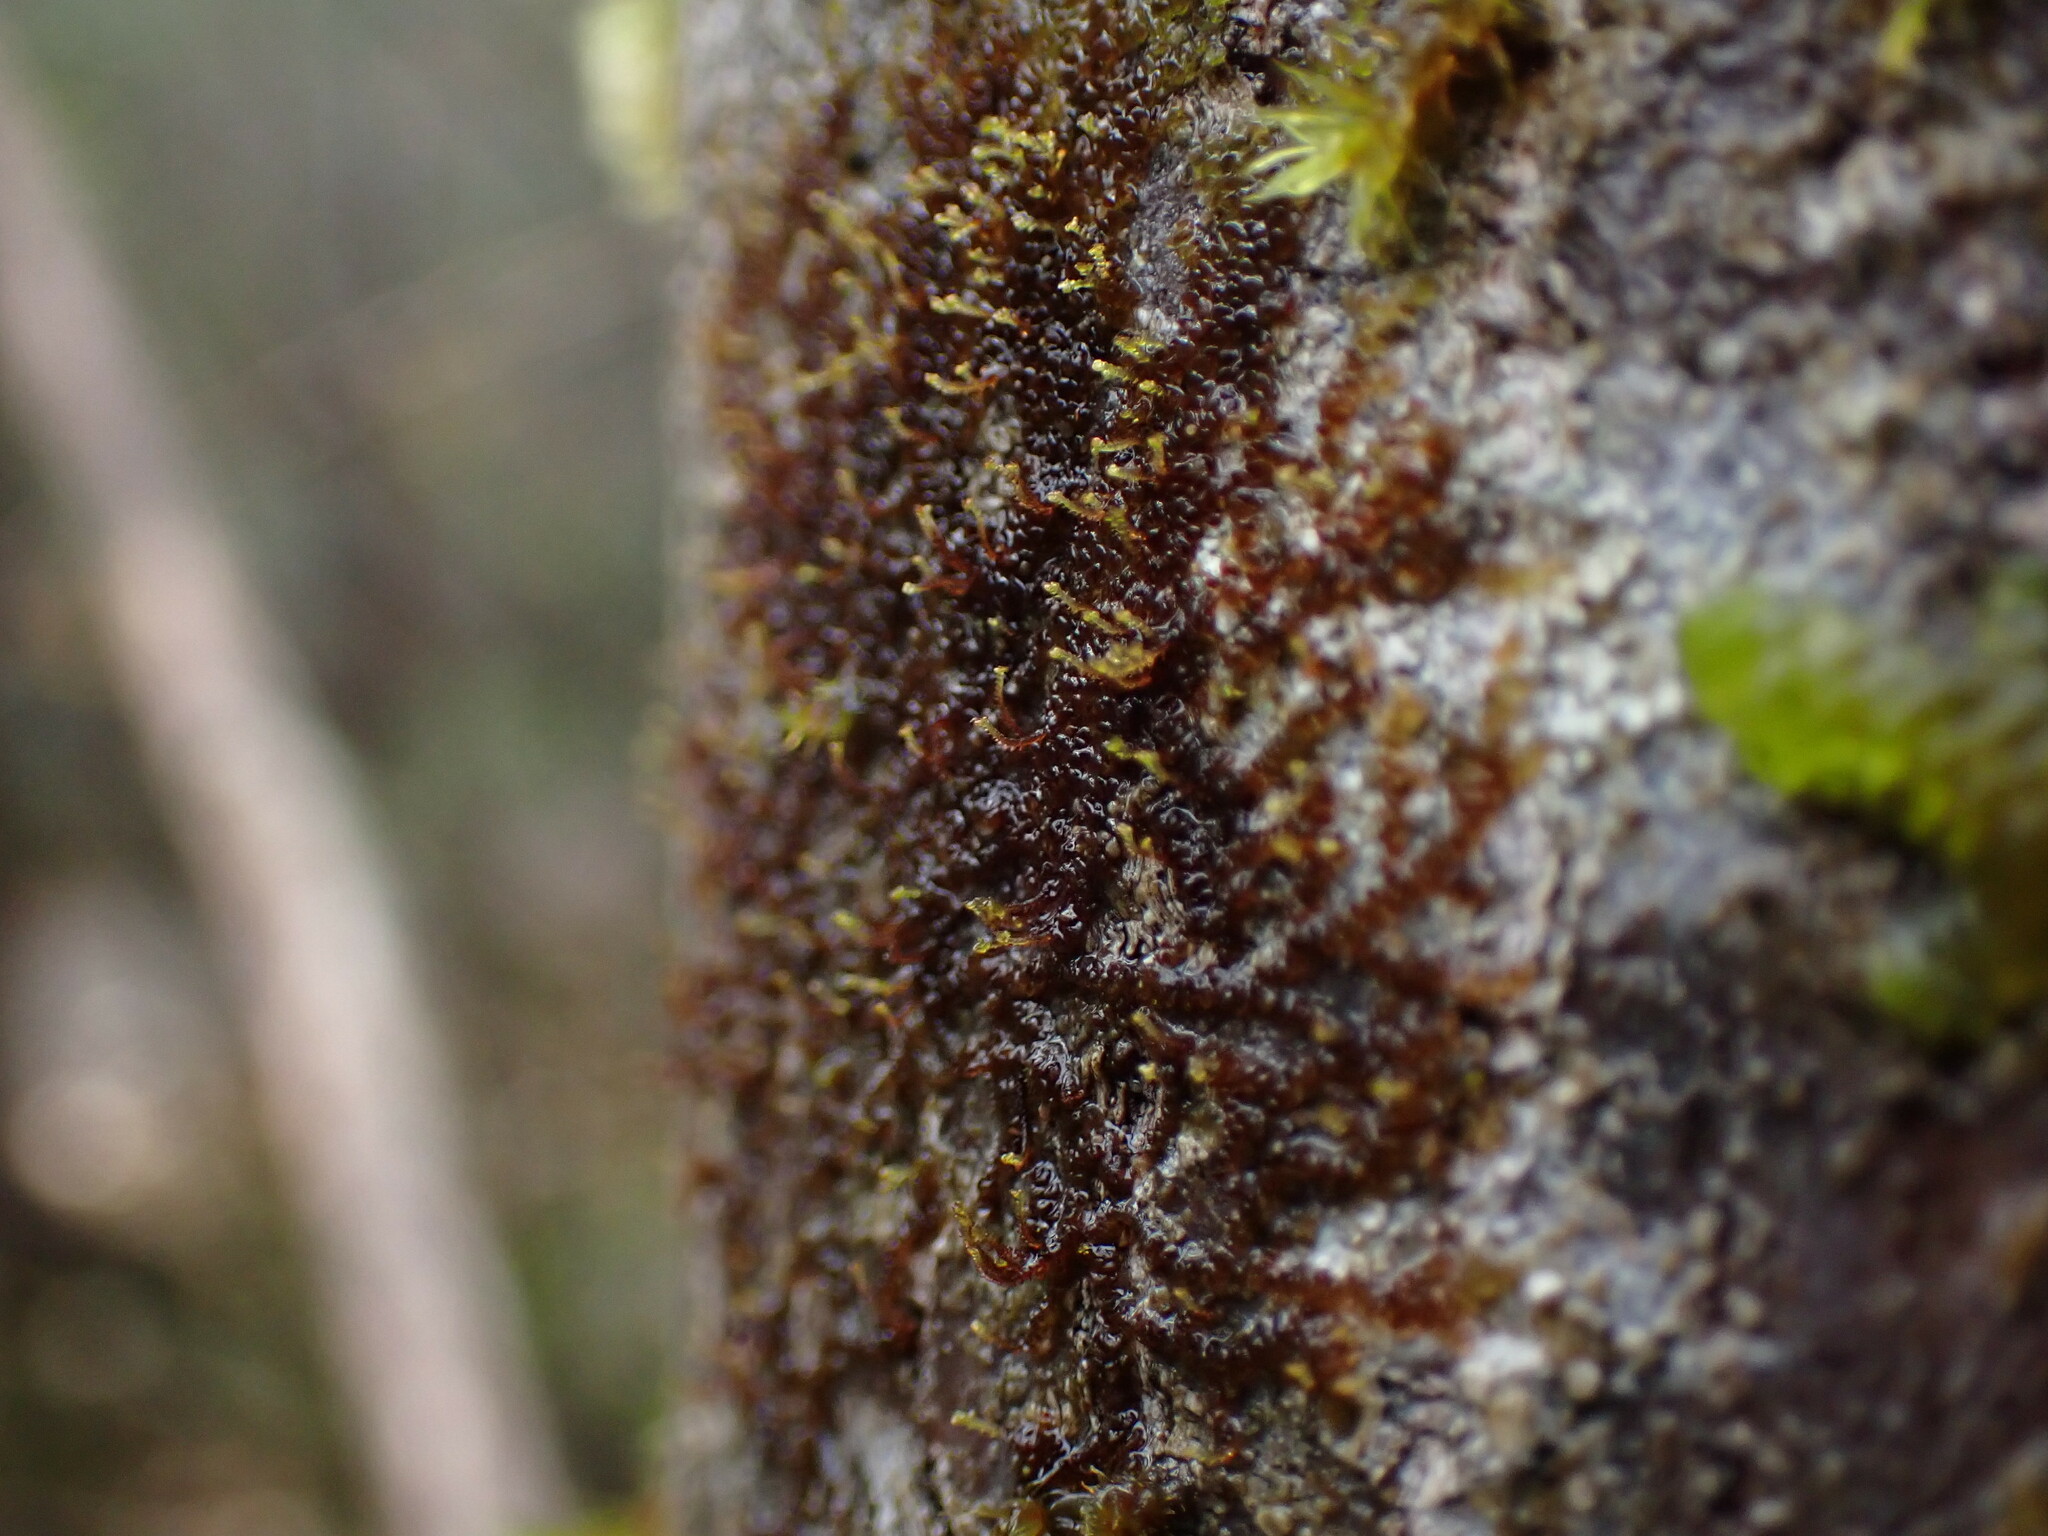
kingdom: Plantae
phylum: Marchantiophyta
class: Jungermanniopsida
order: Porellales
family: Frullaniaceae
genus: Frullania
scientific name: Frullania bolanderi
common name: Bolander s scalewort
